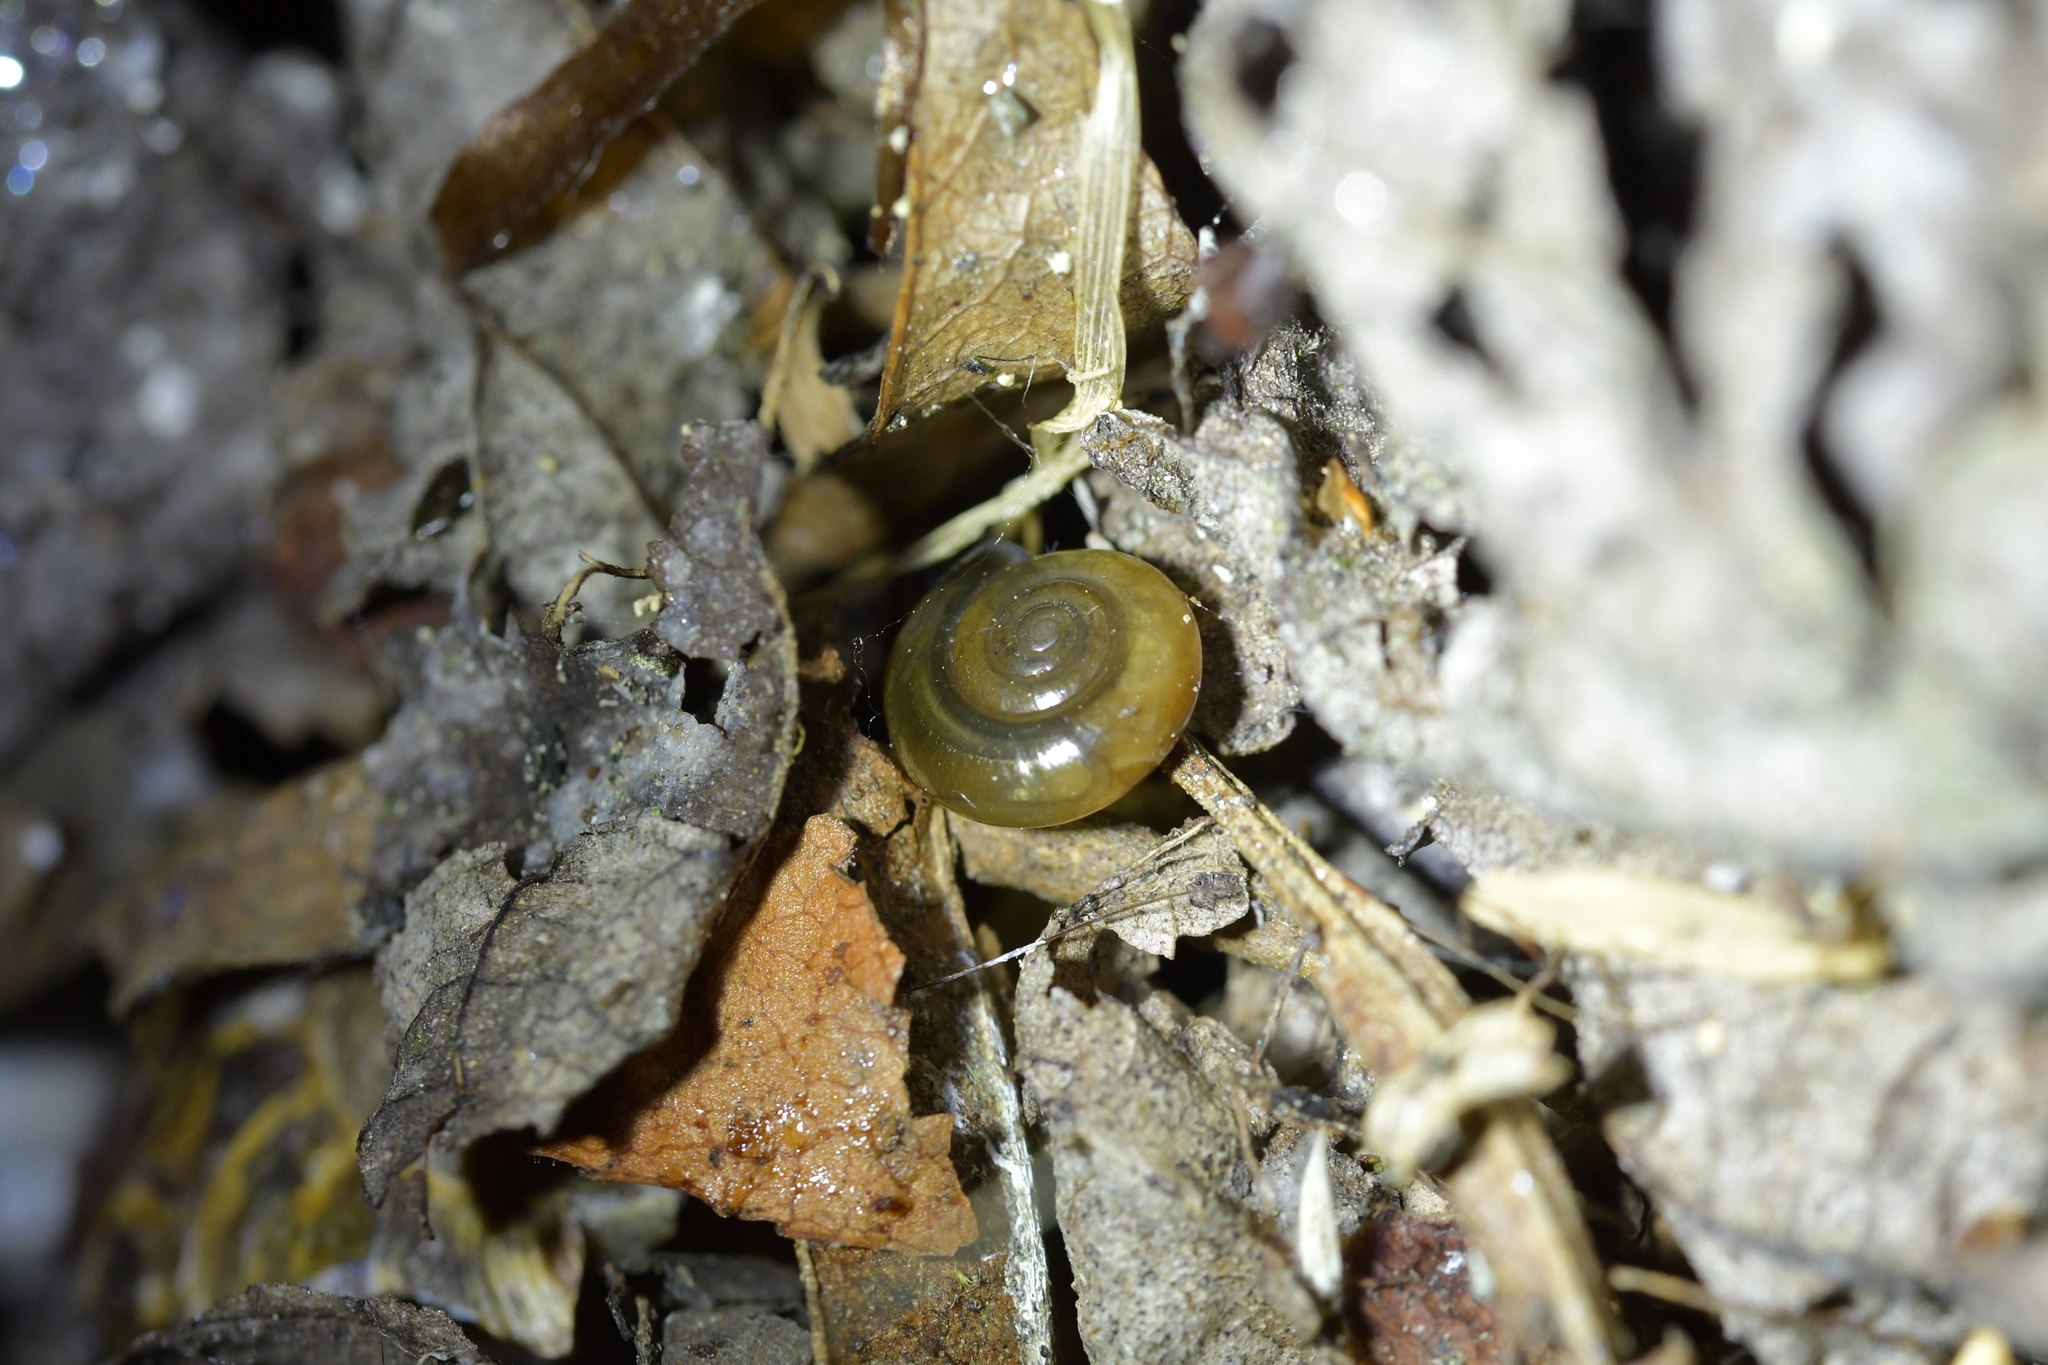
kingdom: Animalia
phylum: Mollusca
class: Gastropoda
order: Stylommatophora
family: Oxychilidae
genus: Oxychilus
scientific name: Oxychilus draparnaudi
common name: Draparnaud's glass snail
